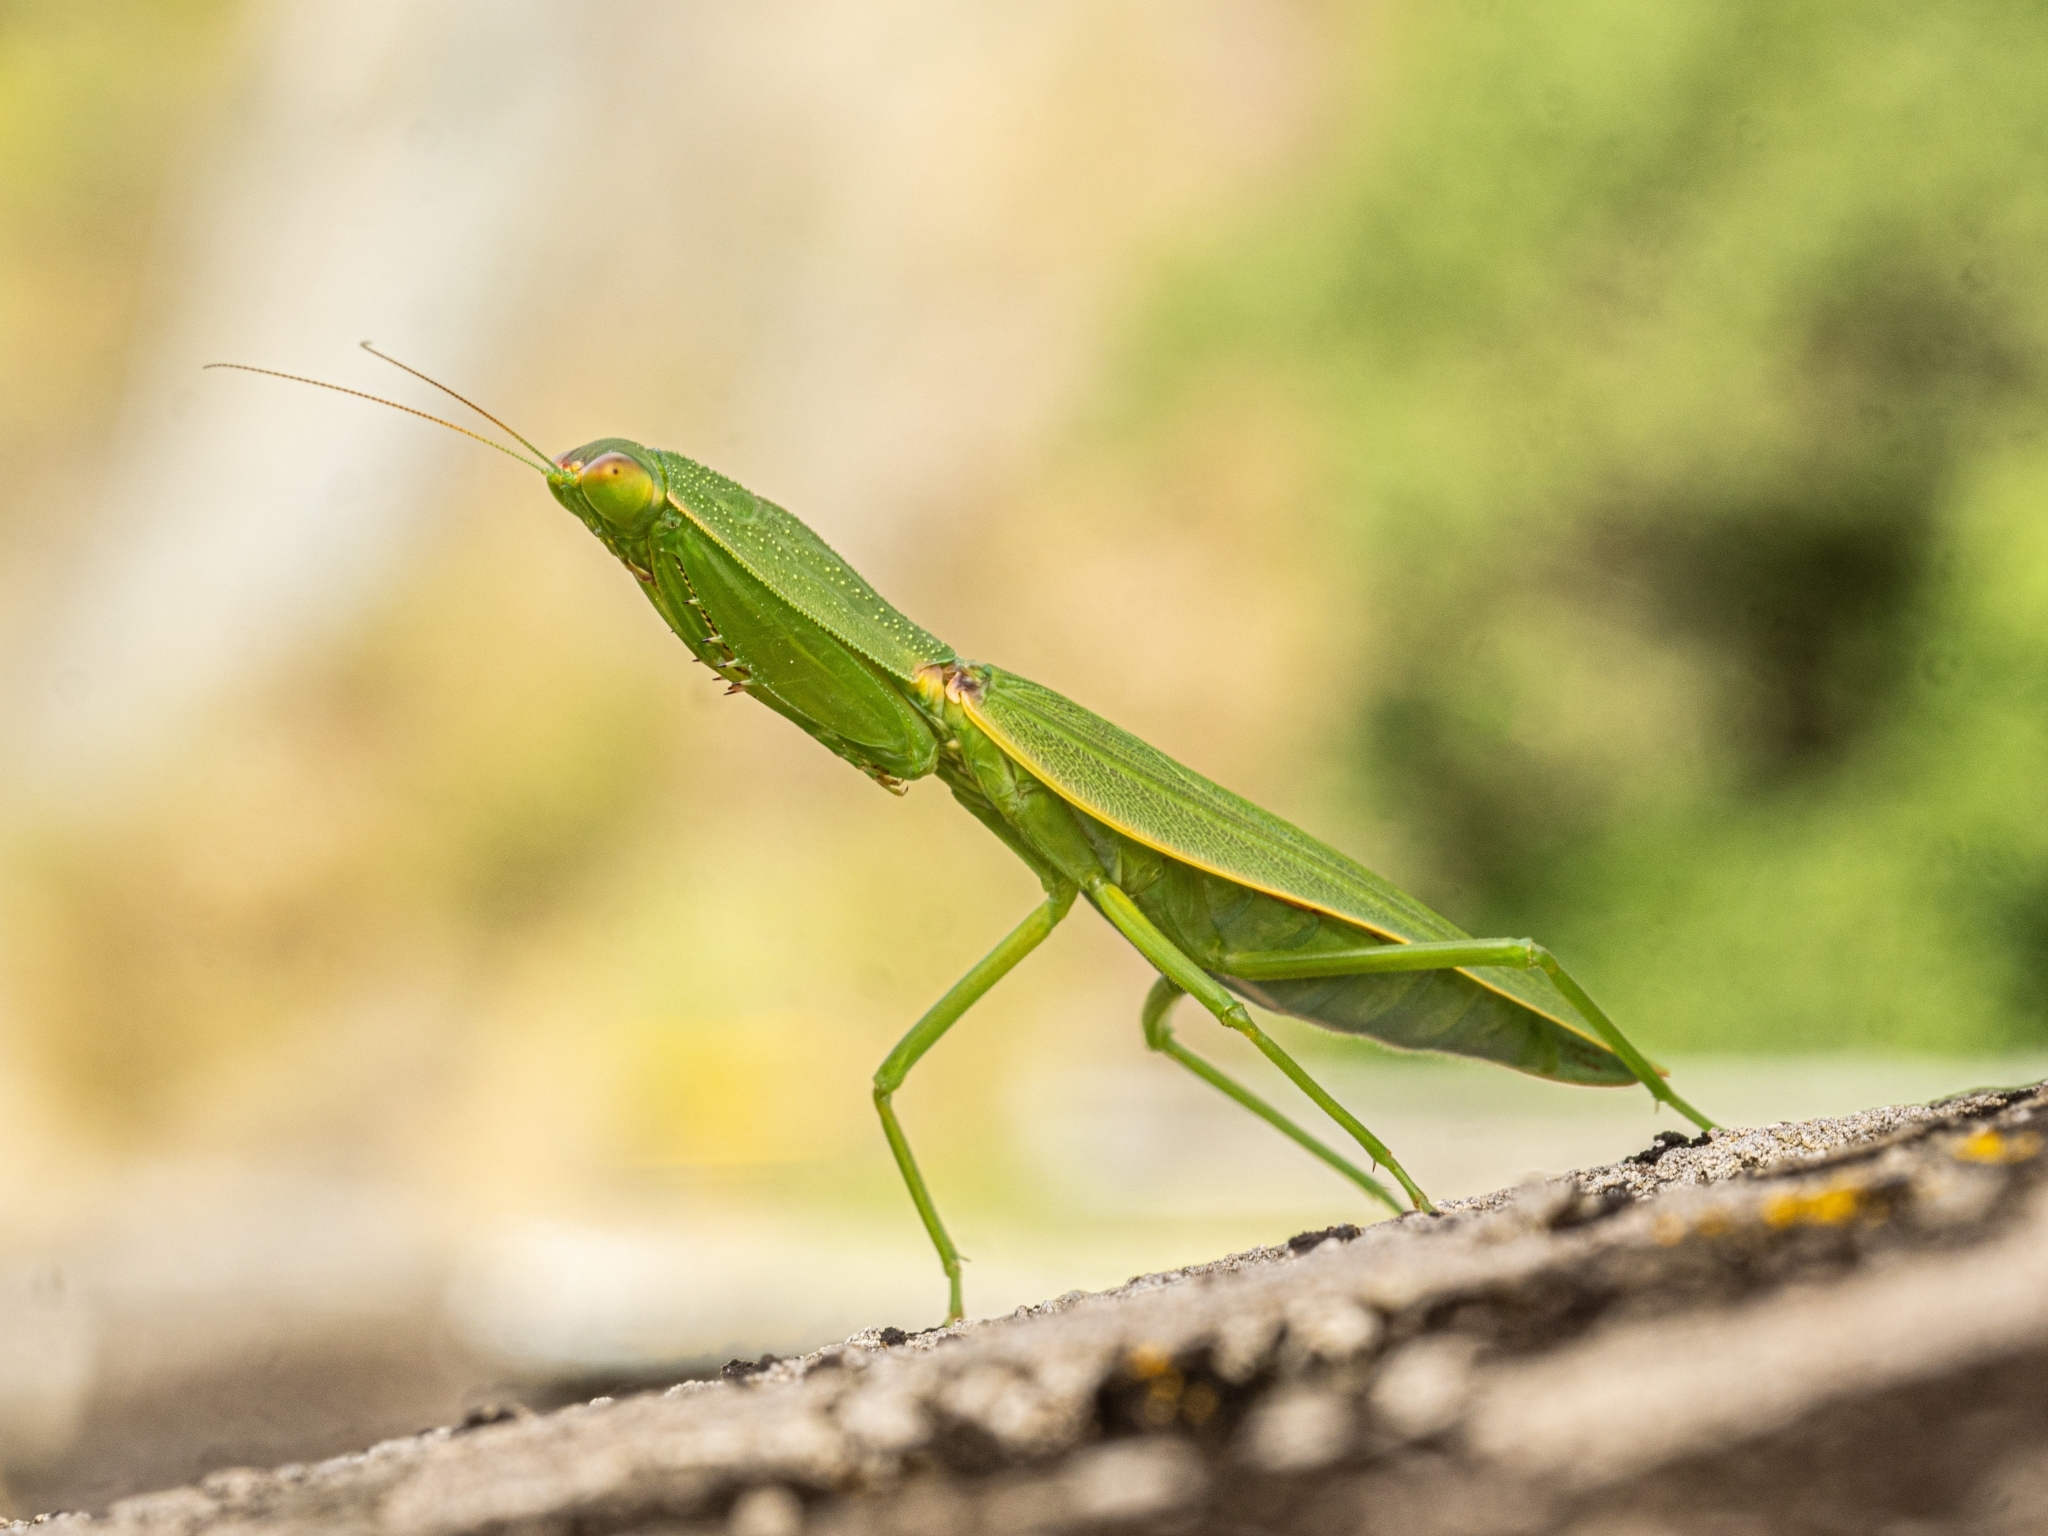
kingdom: Animalia
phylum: Arthropoda
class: Insecta
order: Mantodea
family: Mantidae
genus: Orthodera
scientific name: Orthodera novaezealandiae
